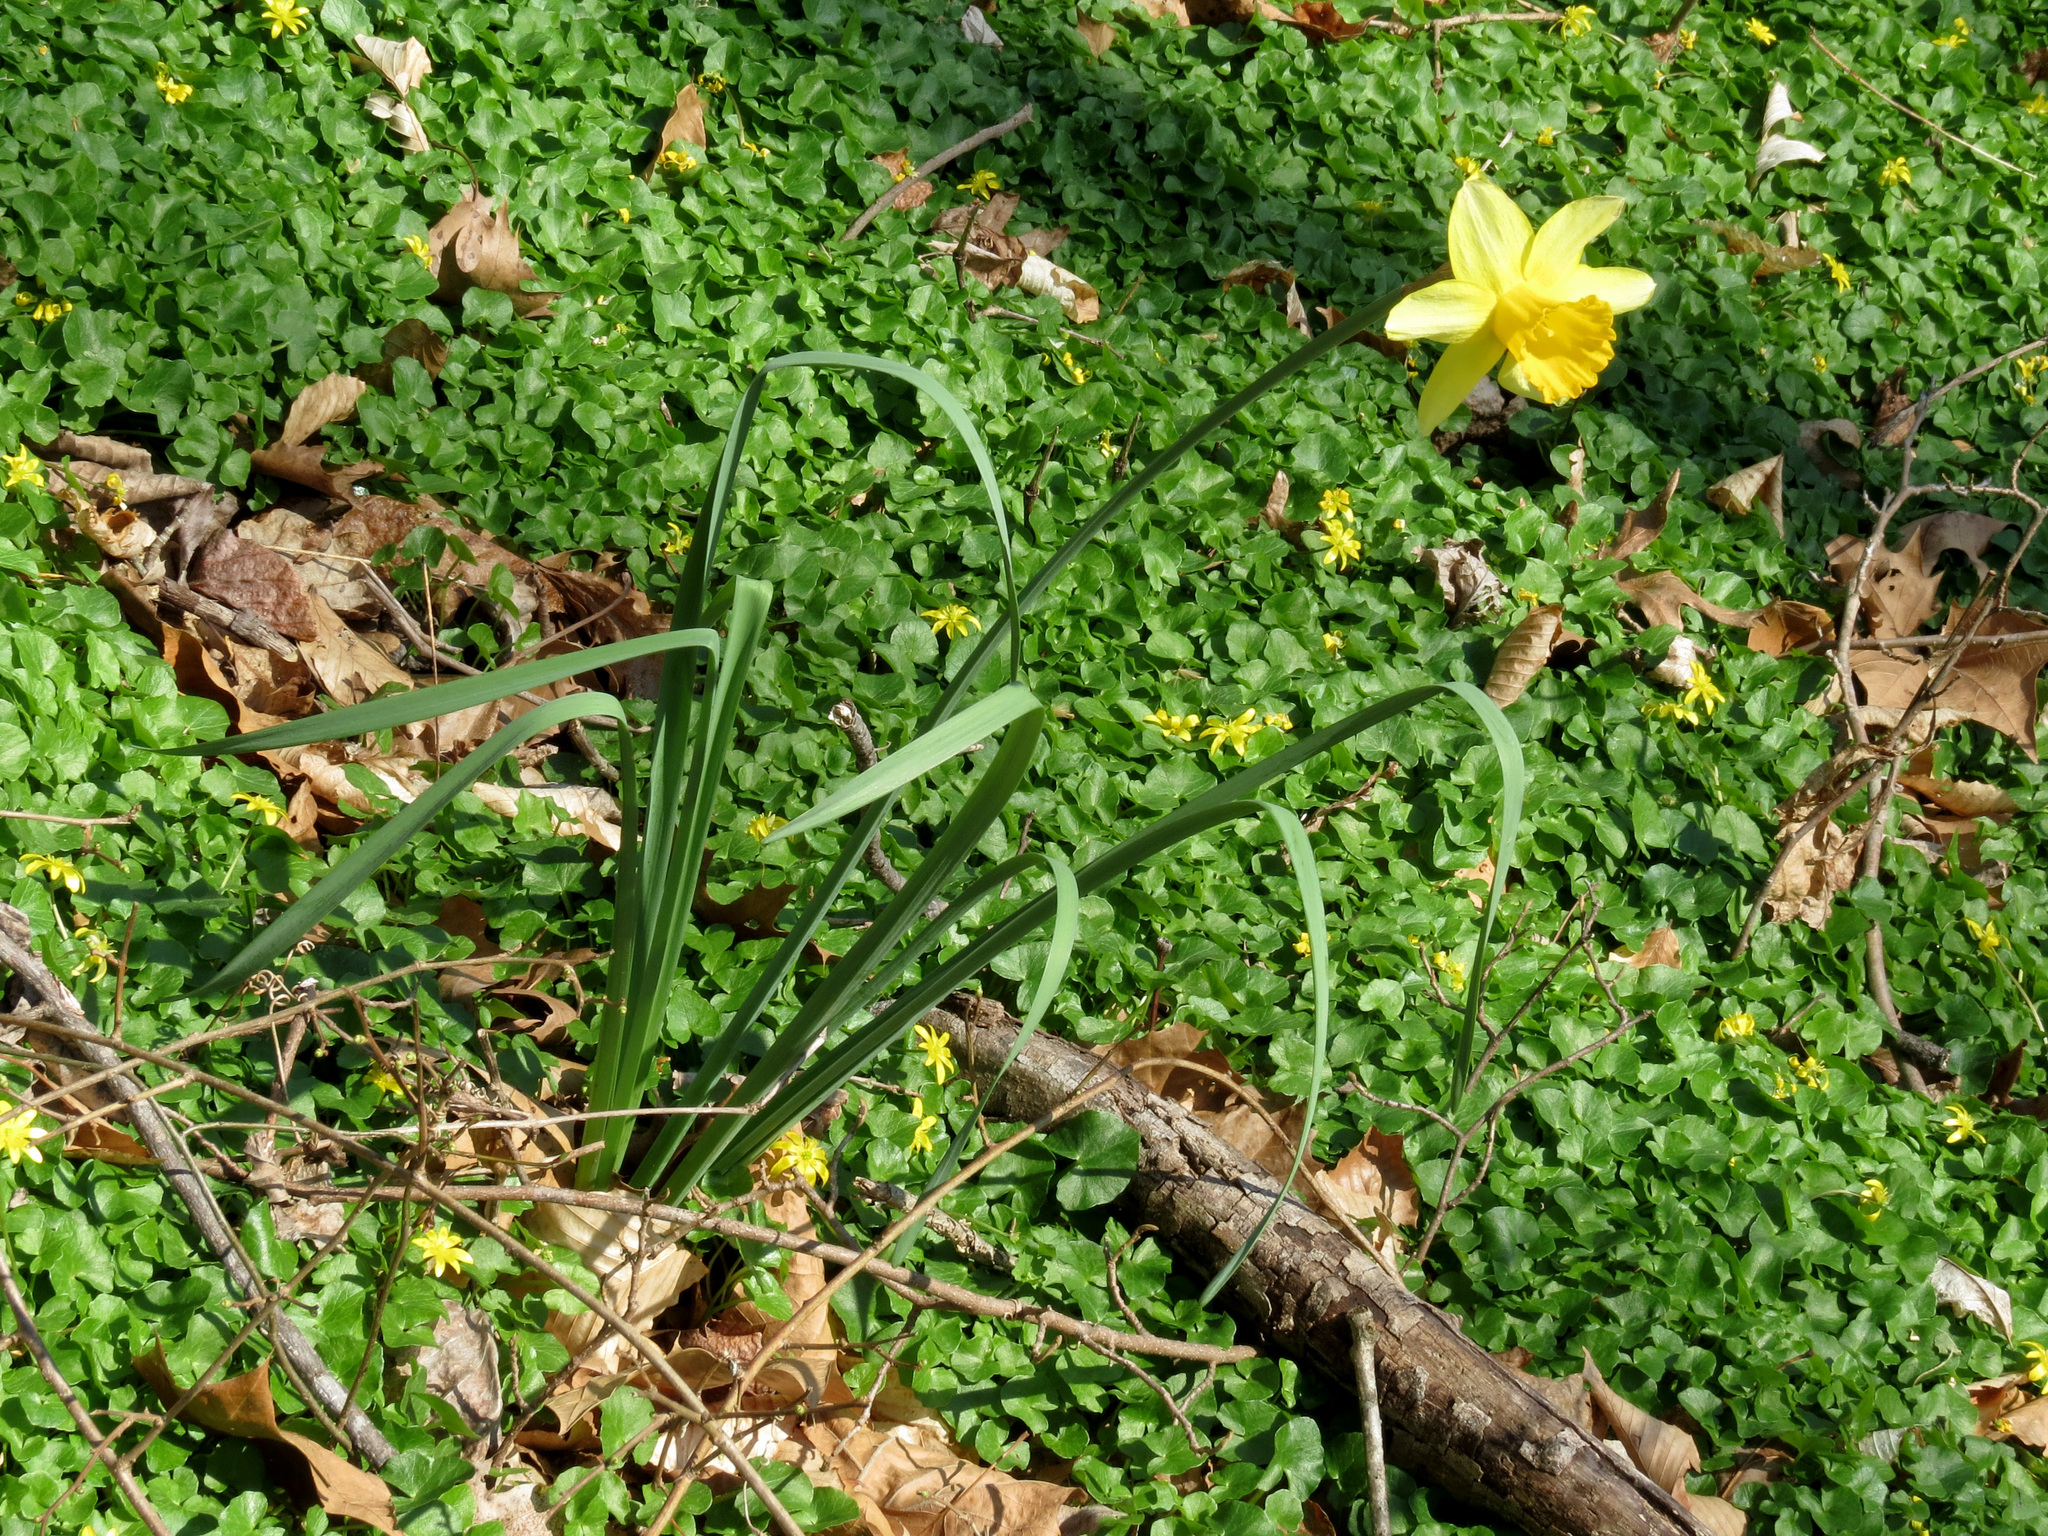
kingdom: Plantae
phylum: Tracheophyta
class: Liliopsida
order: Asparagales
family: Amaryllidaceae
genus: Narcissus
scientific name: Narcissus pseudonarcissus
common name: Daffodil
